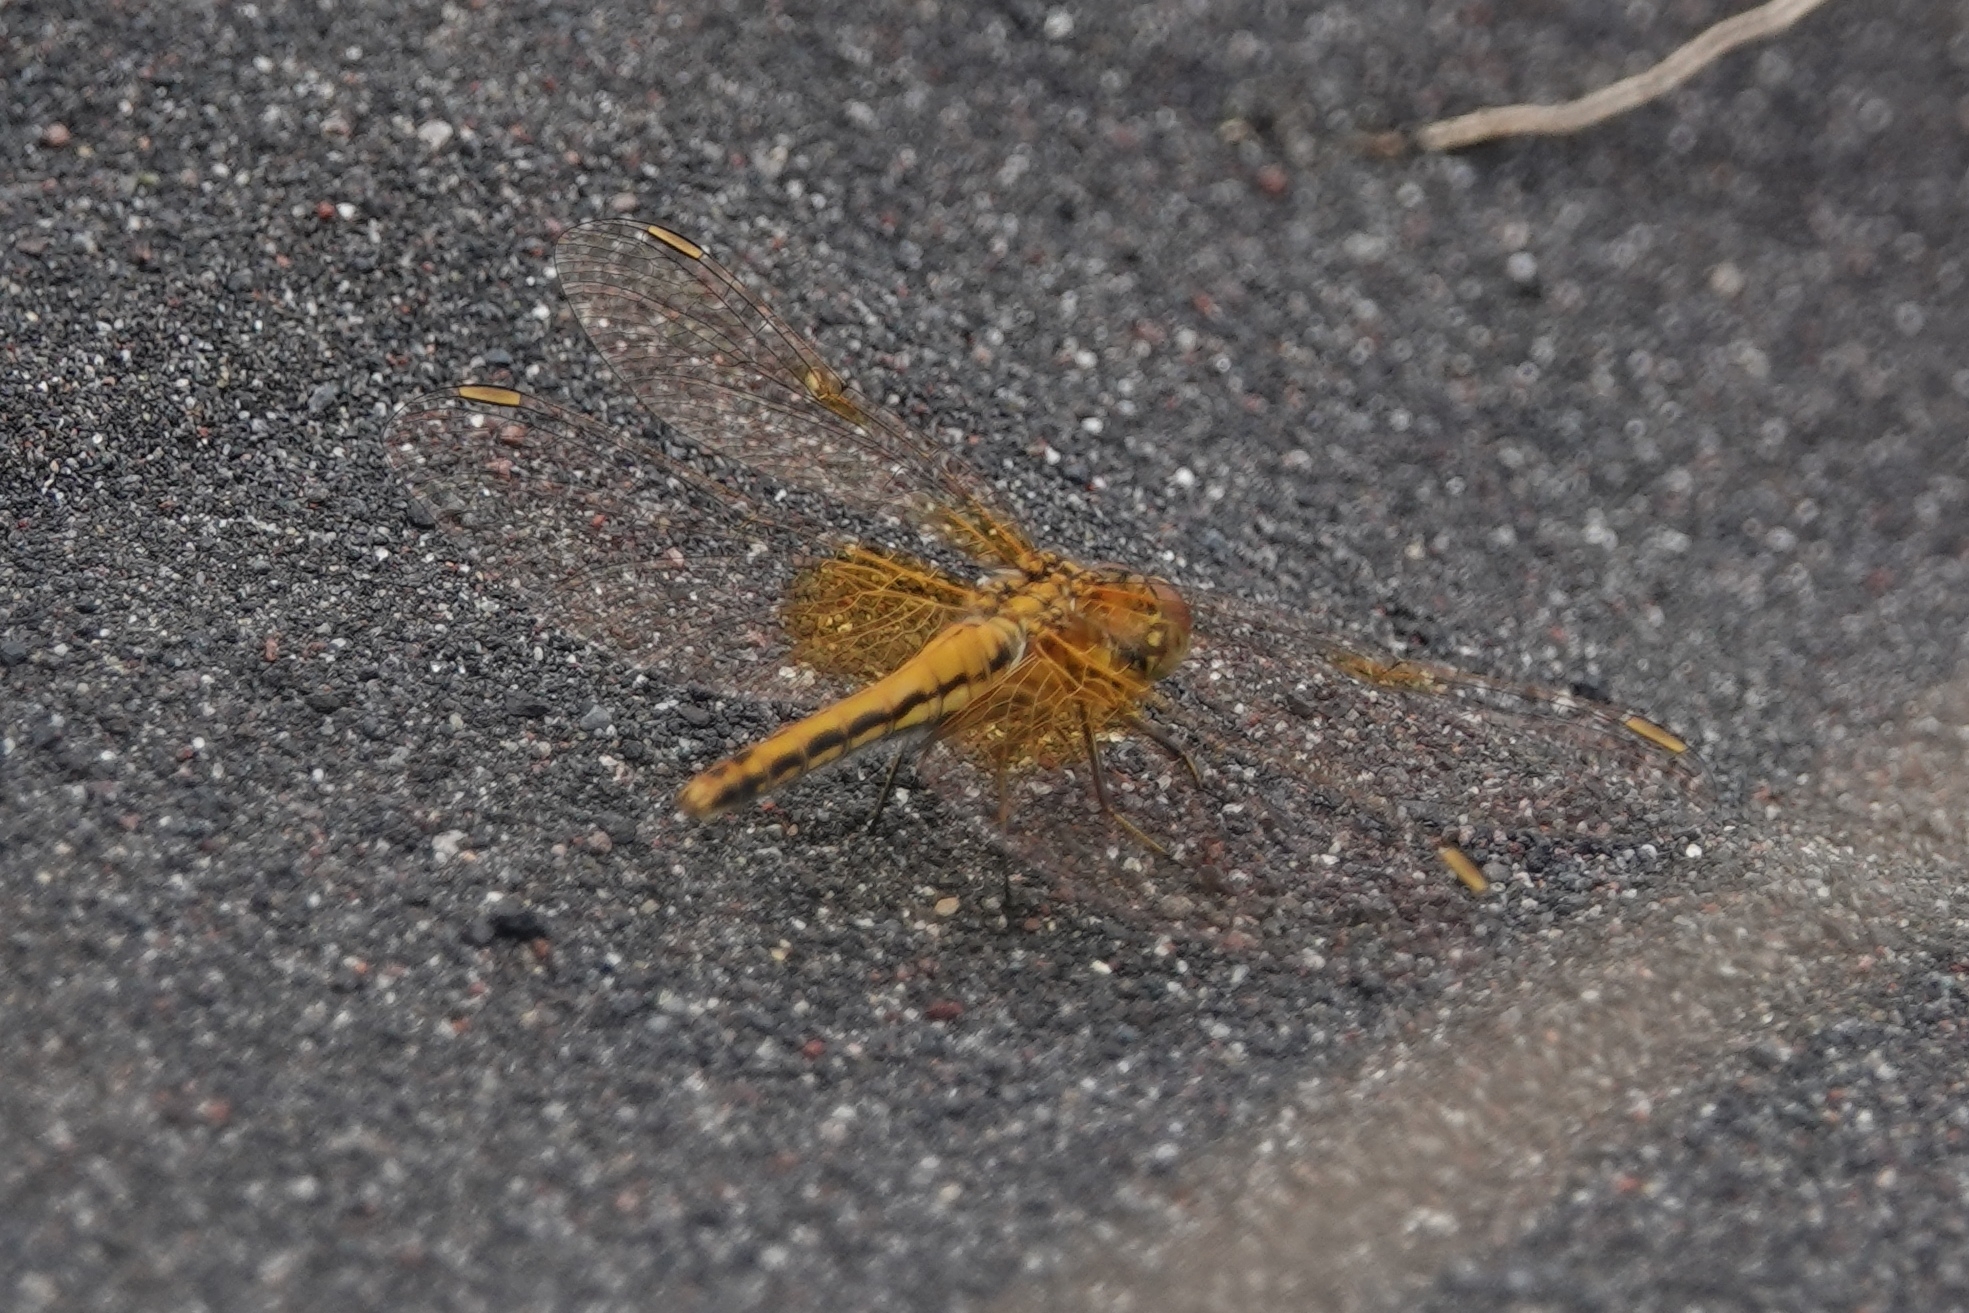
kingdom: Animalia
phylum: Arthropoda
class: Insecta
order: Odonata
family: Libellulidae
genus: Sympetrum
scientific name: Sympetrum flaveolum
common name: Yellow-winged darter
